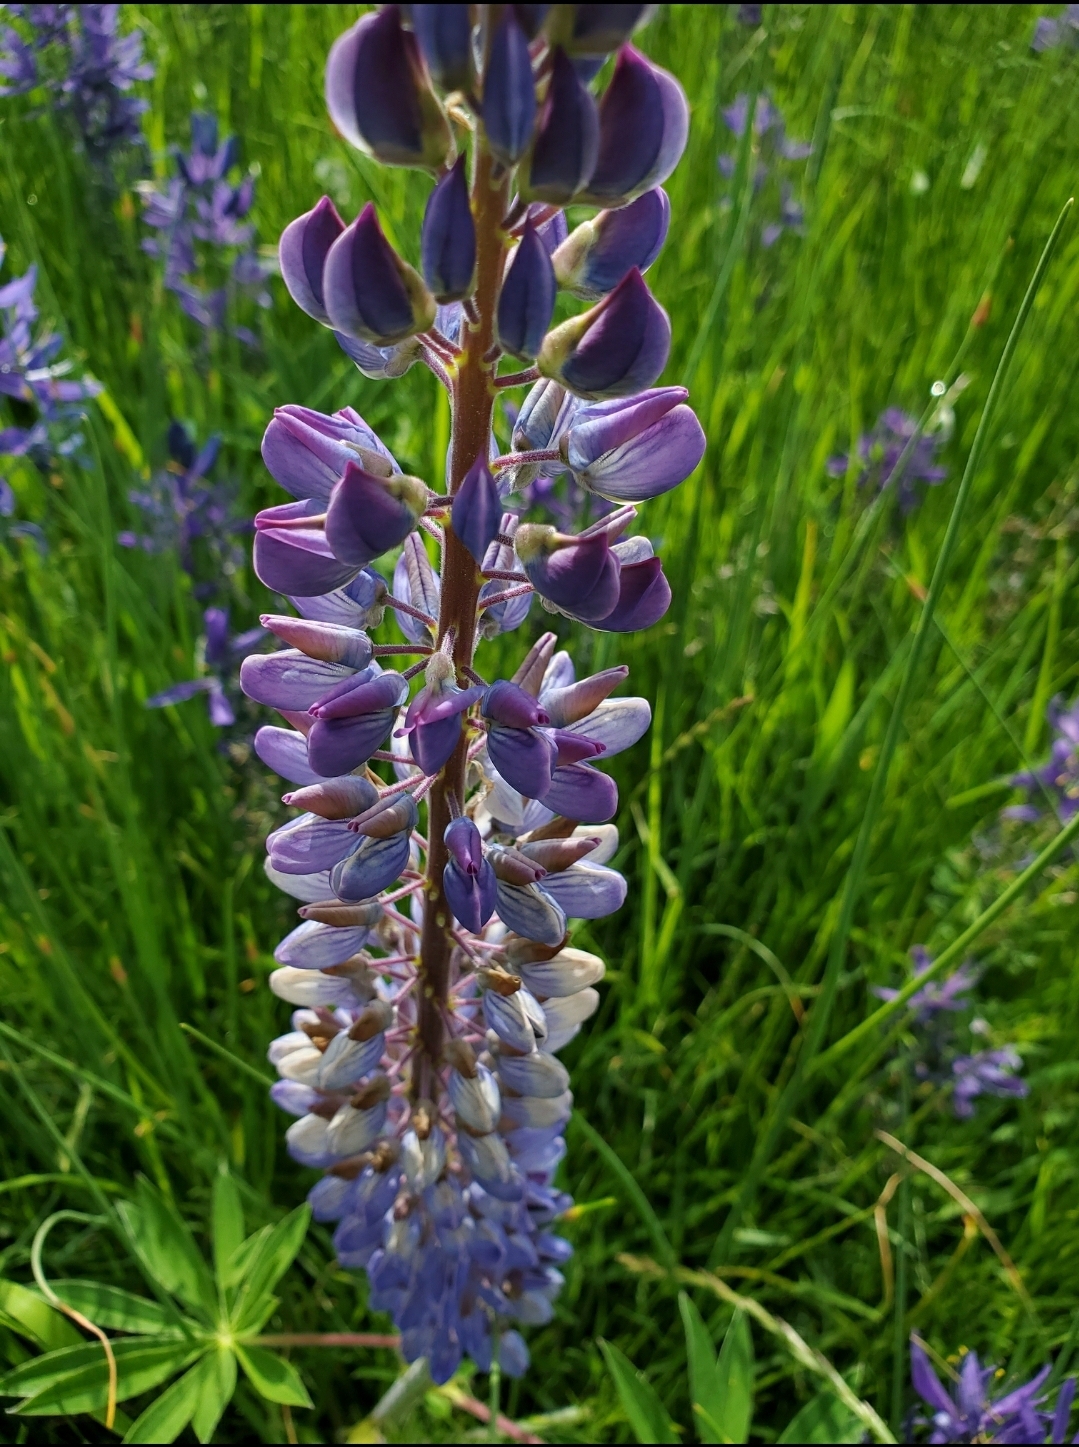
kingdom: Plantae
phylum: Tracheophyta
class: Magnoliopsida
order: Fabales
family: Fabaceae
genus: Lupinus
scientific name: Lupinus polyphyllus
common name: Garden lupin
